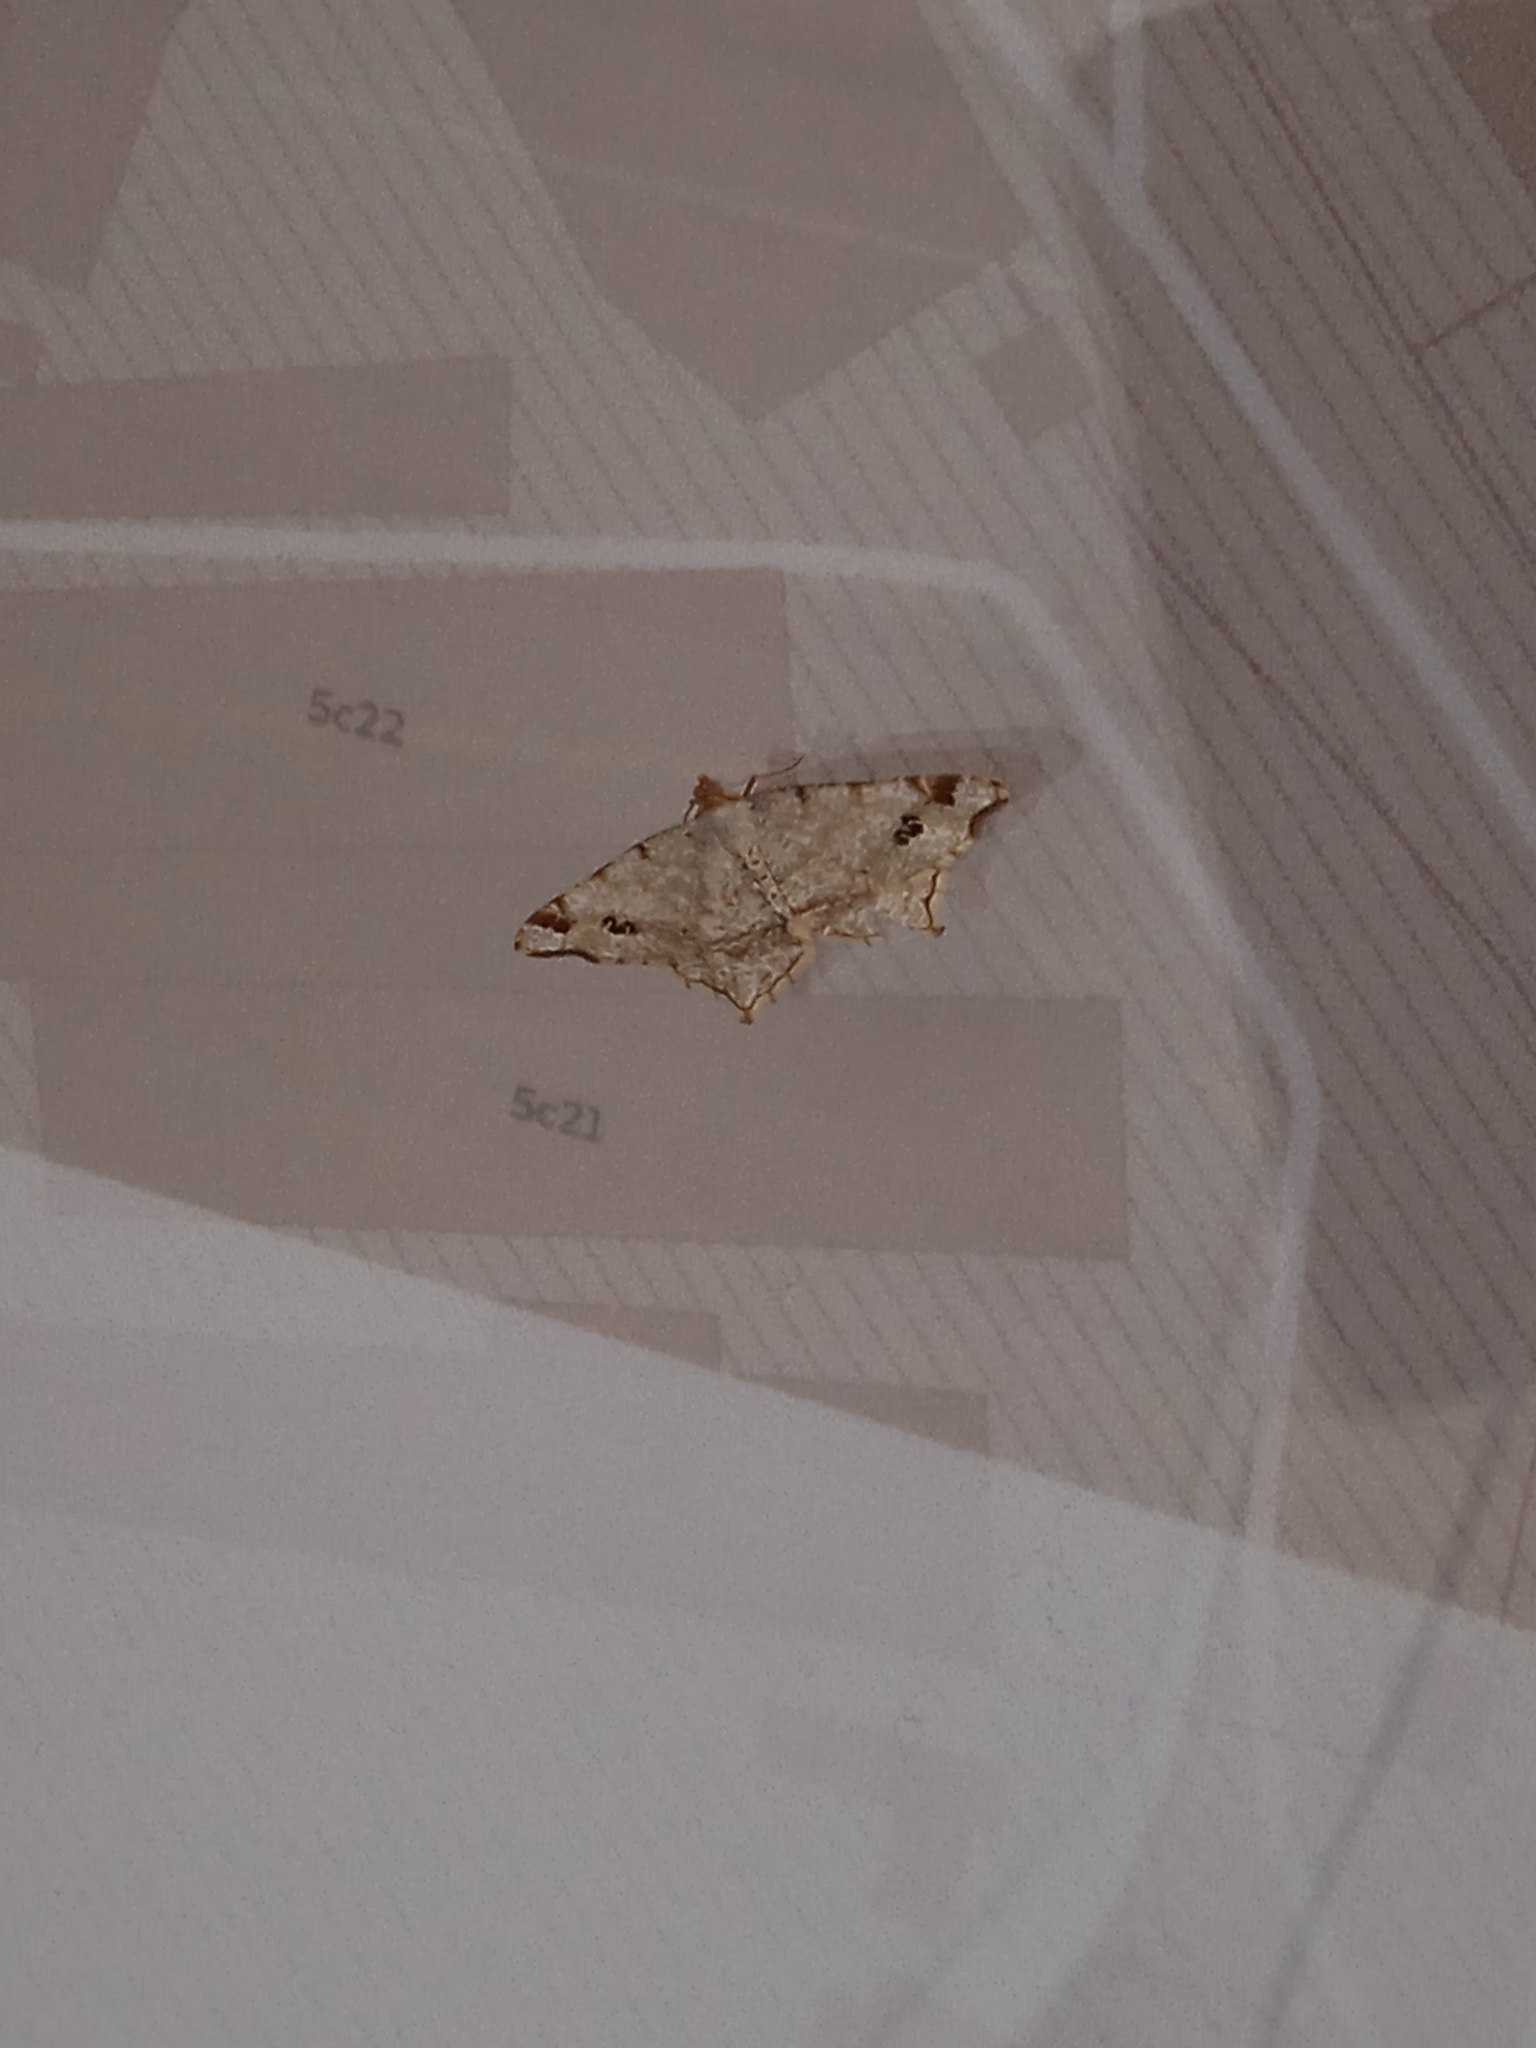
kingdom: Animalia
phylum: Arthropoda
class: Insecta
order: Lepidoptera
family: Geometridae
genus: Macaria
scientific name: Macaria notata
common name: Peacock moth
